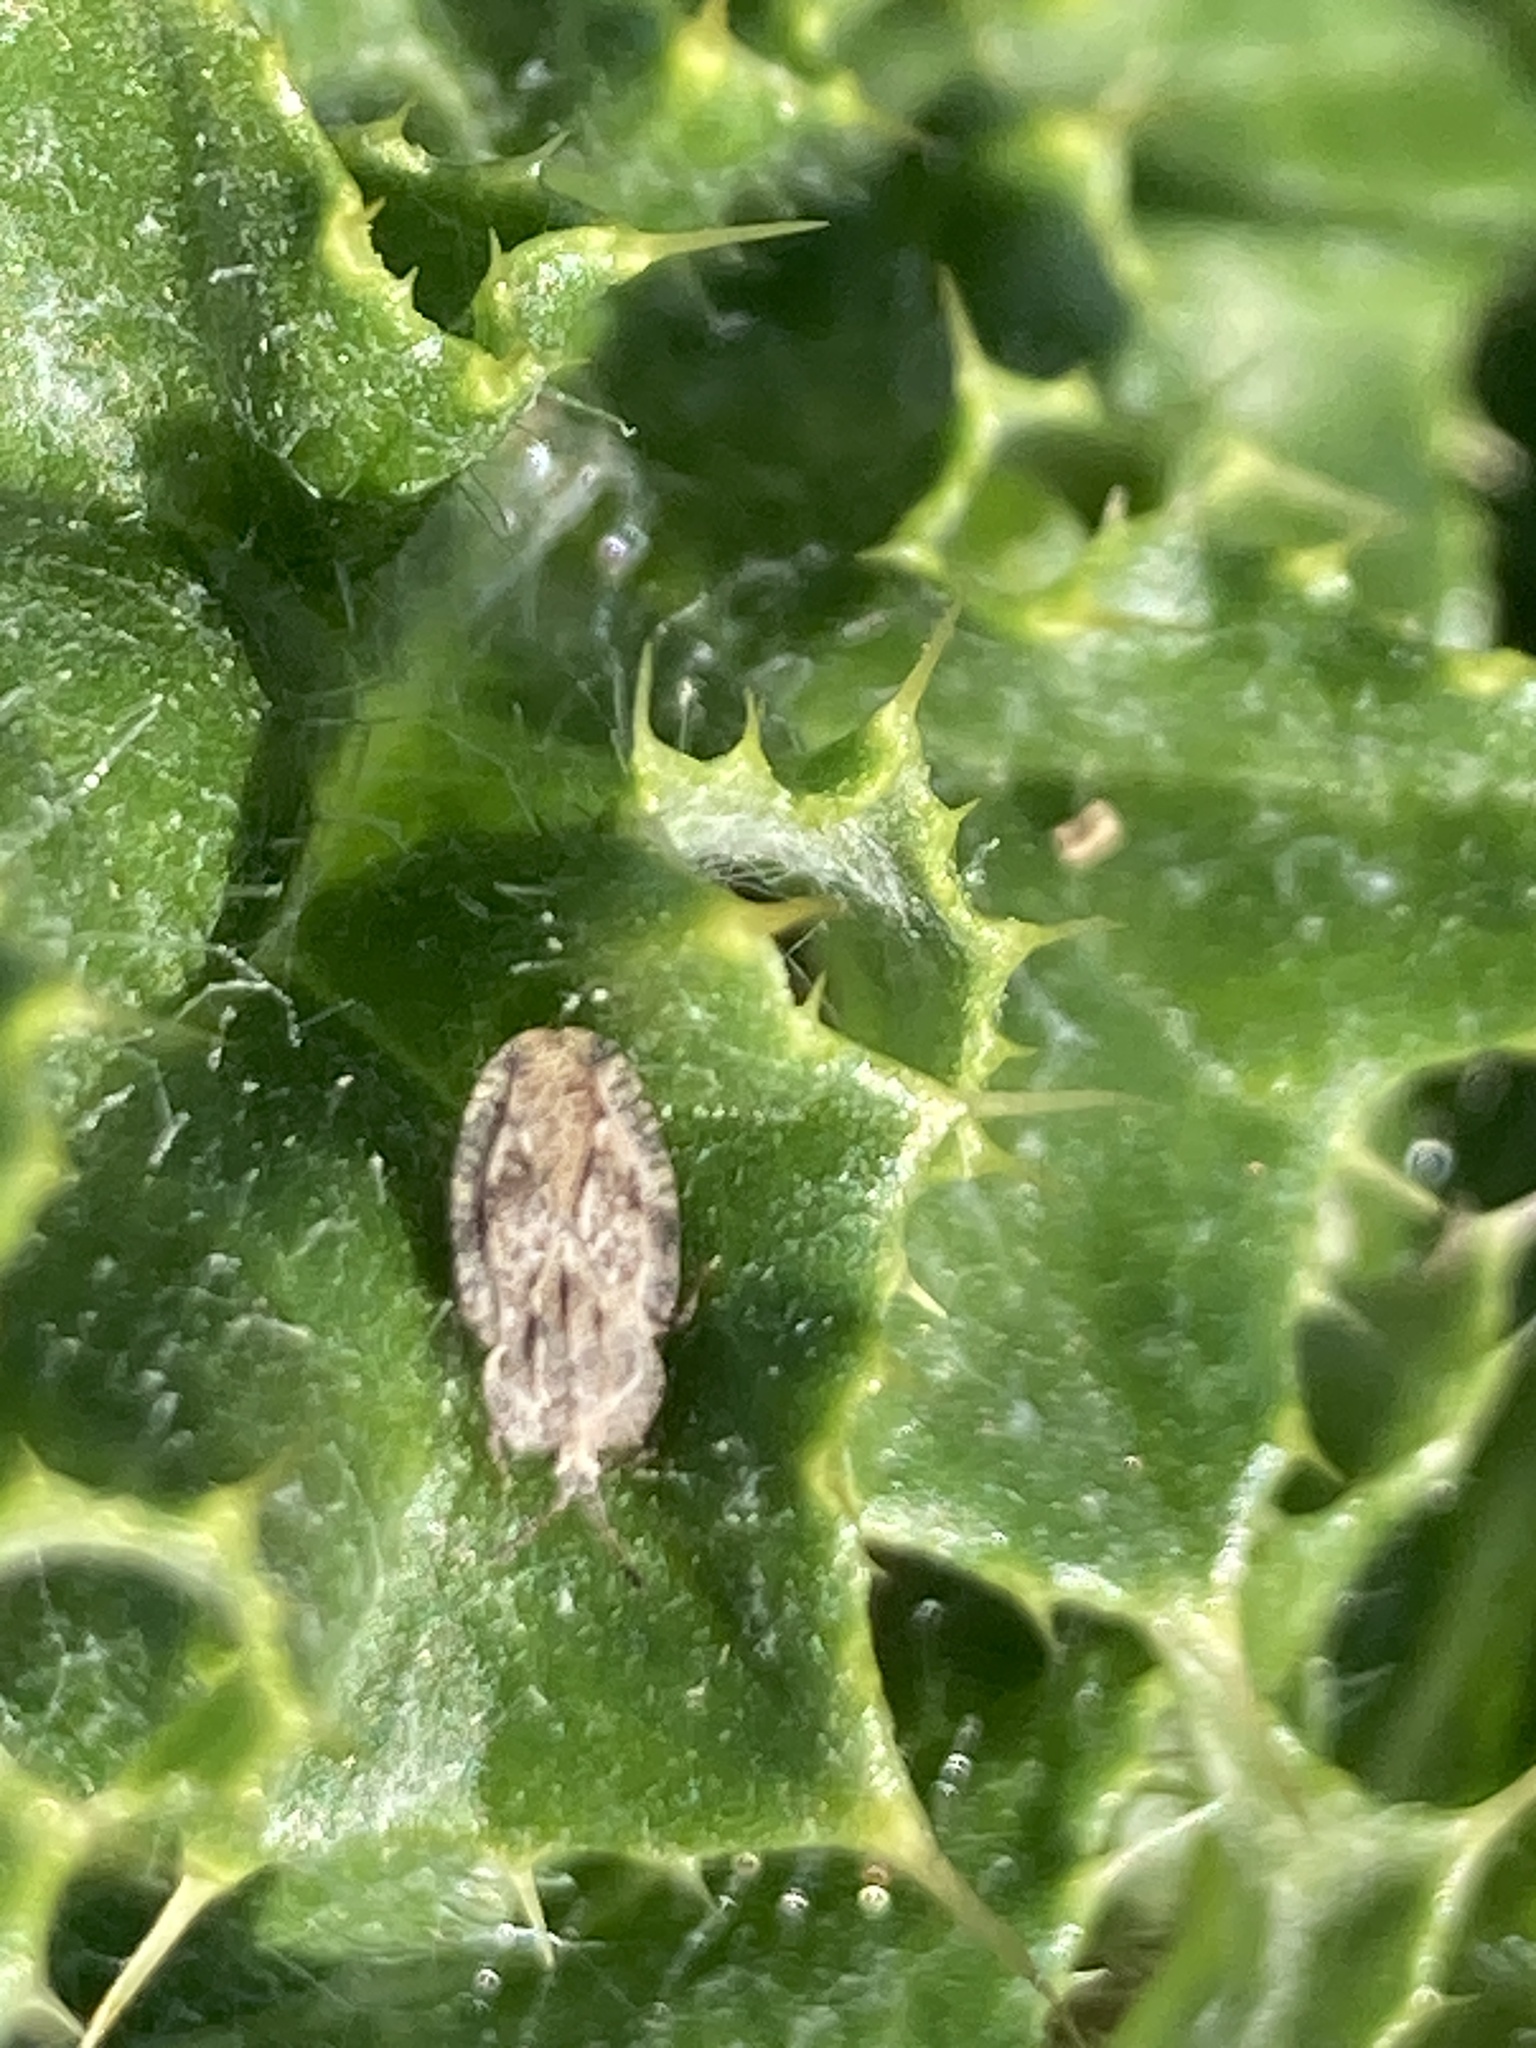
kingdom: Animalia
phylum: Arthropoda
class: Insecta
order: Hemiptera
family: Tingidae
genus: Tingis
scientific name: Tingis ampliata
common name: Creeping thistle lacebug
